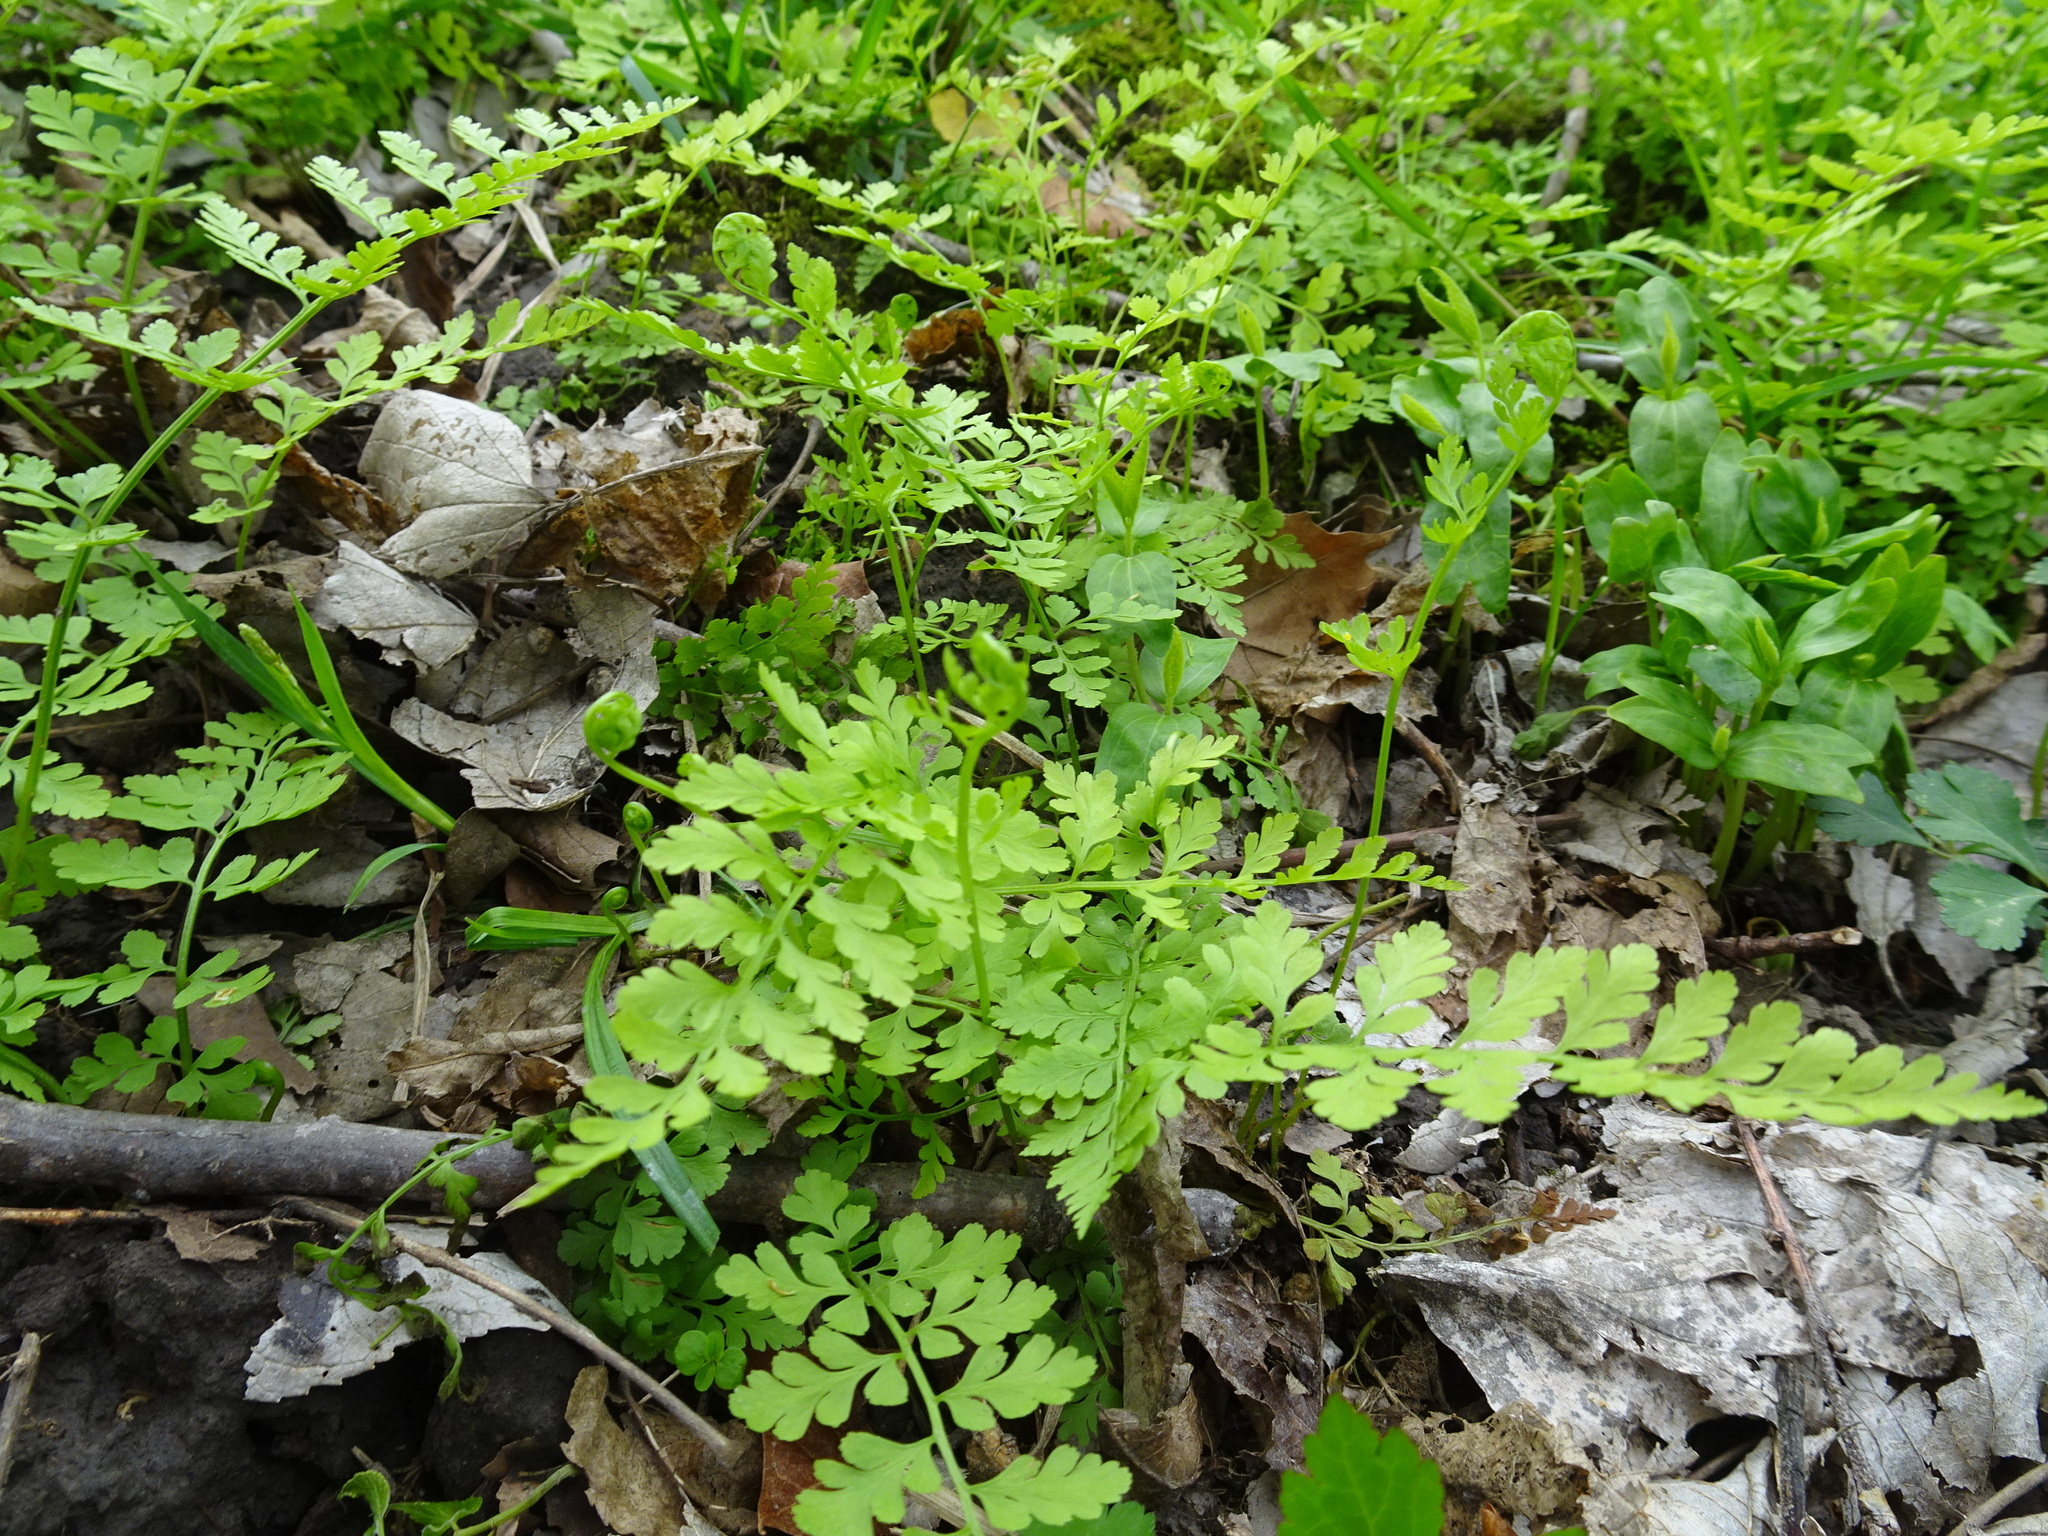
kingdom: Plantae
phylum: Tracheophyta
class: Polypodiopsida
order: Polypodiales
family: Cystopteridaceae
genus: Cystopteris
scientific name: Cystopteris protrusa
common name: Lowland brittle fern
